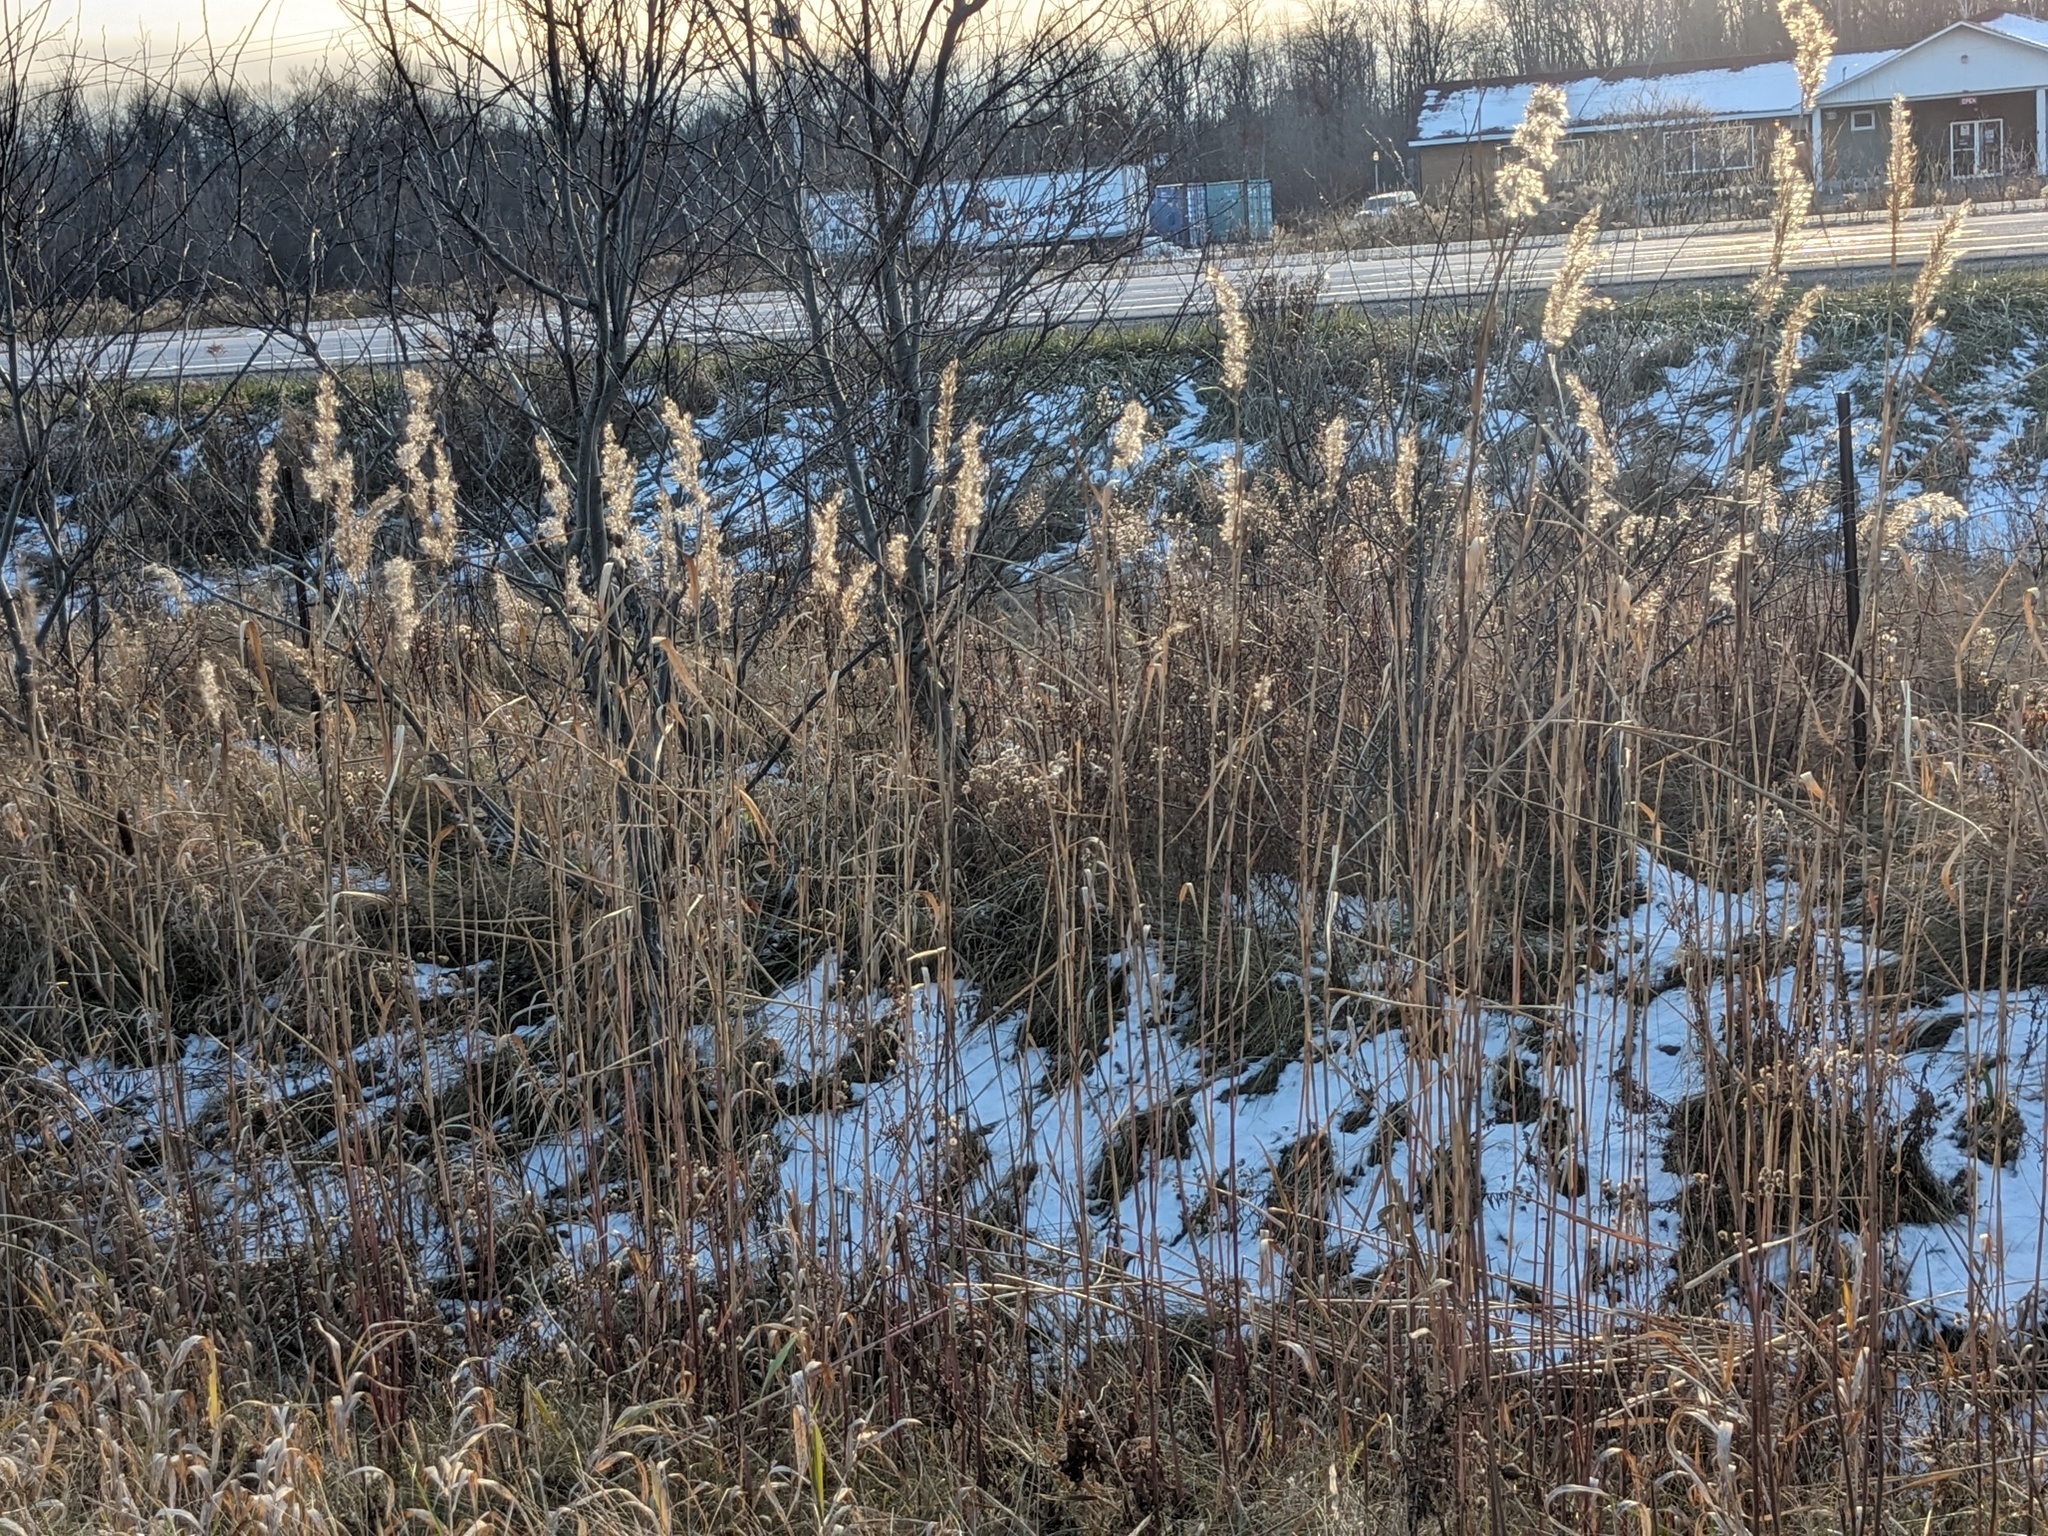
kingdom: Plantae
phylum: Tracheophyta
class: Liliopsida
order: Poales
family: Poaceae
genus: Phragmites
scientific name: Phragmites australis
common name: Common reed
